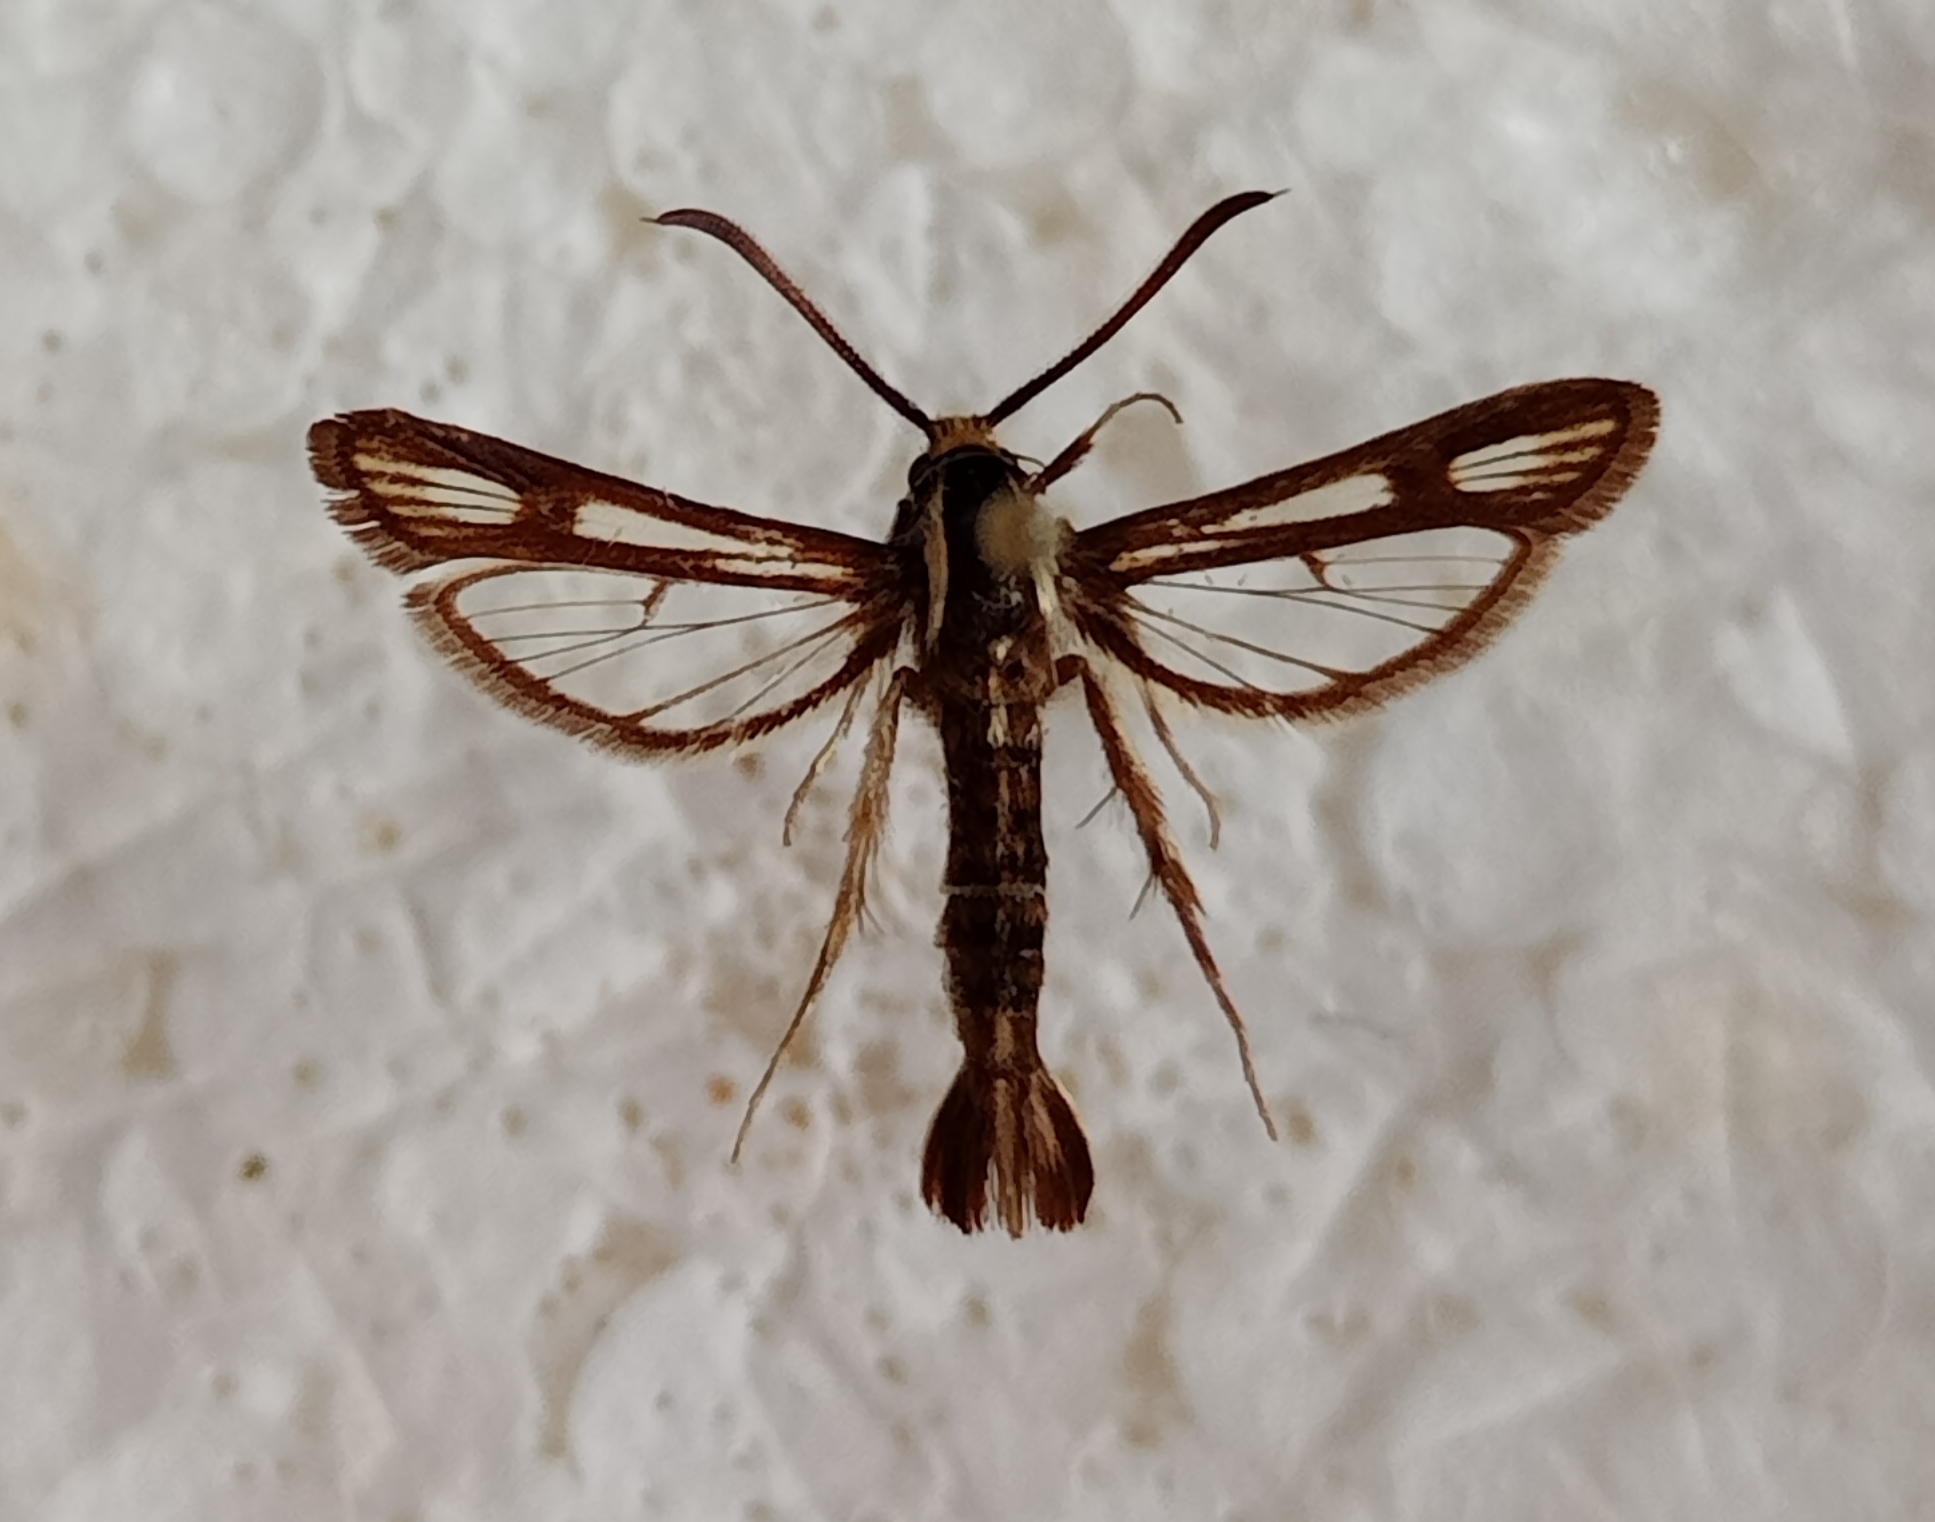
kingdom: Animalia
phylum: Arthropoda
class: Insecta
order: Lepidoptera
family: Sesiidae
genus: Chamaesphecia
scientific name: Chamaesphecia leucopsiformis
